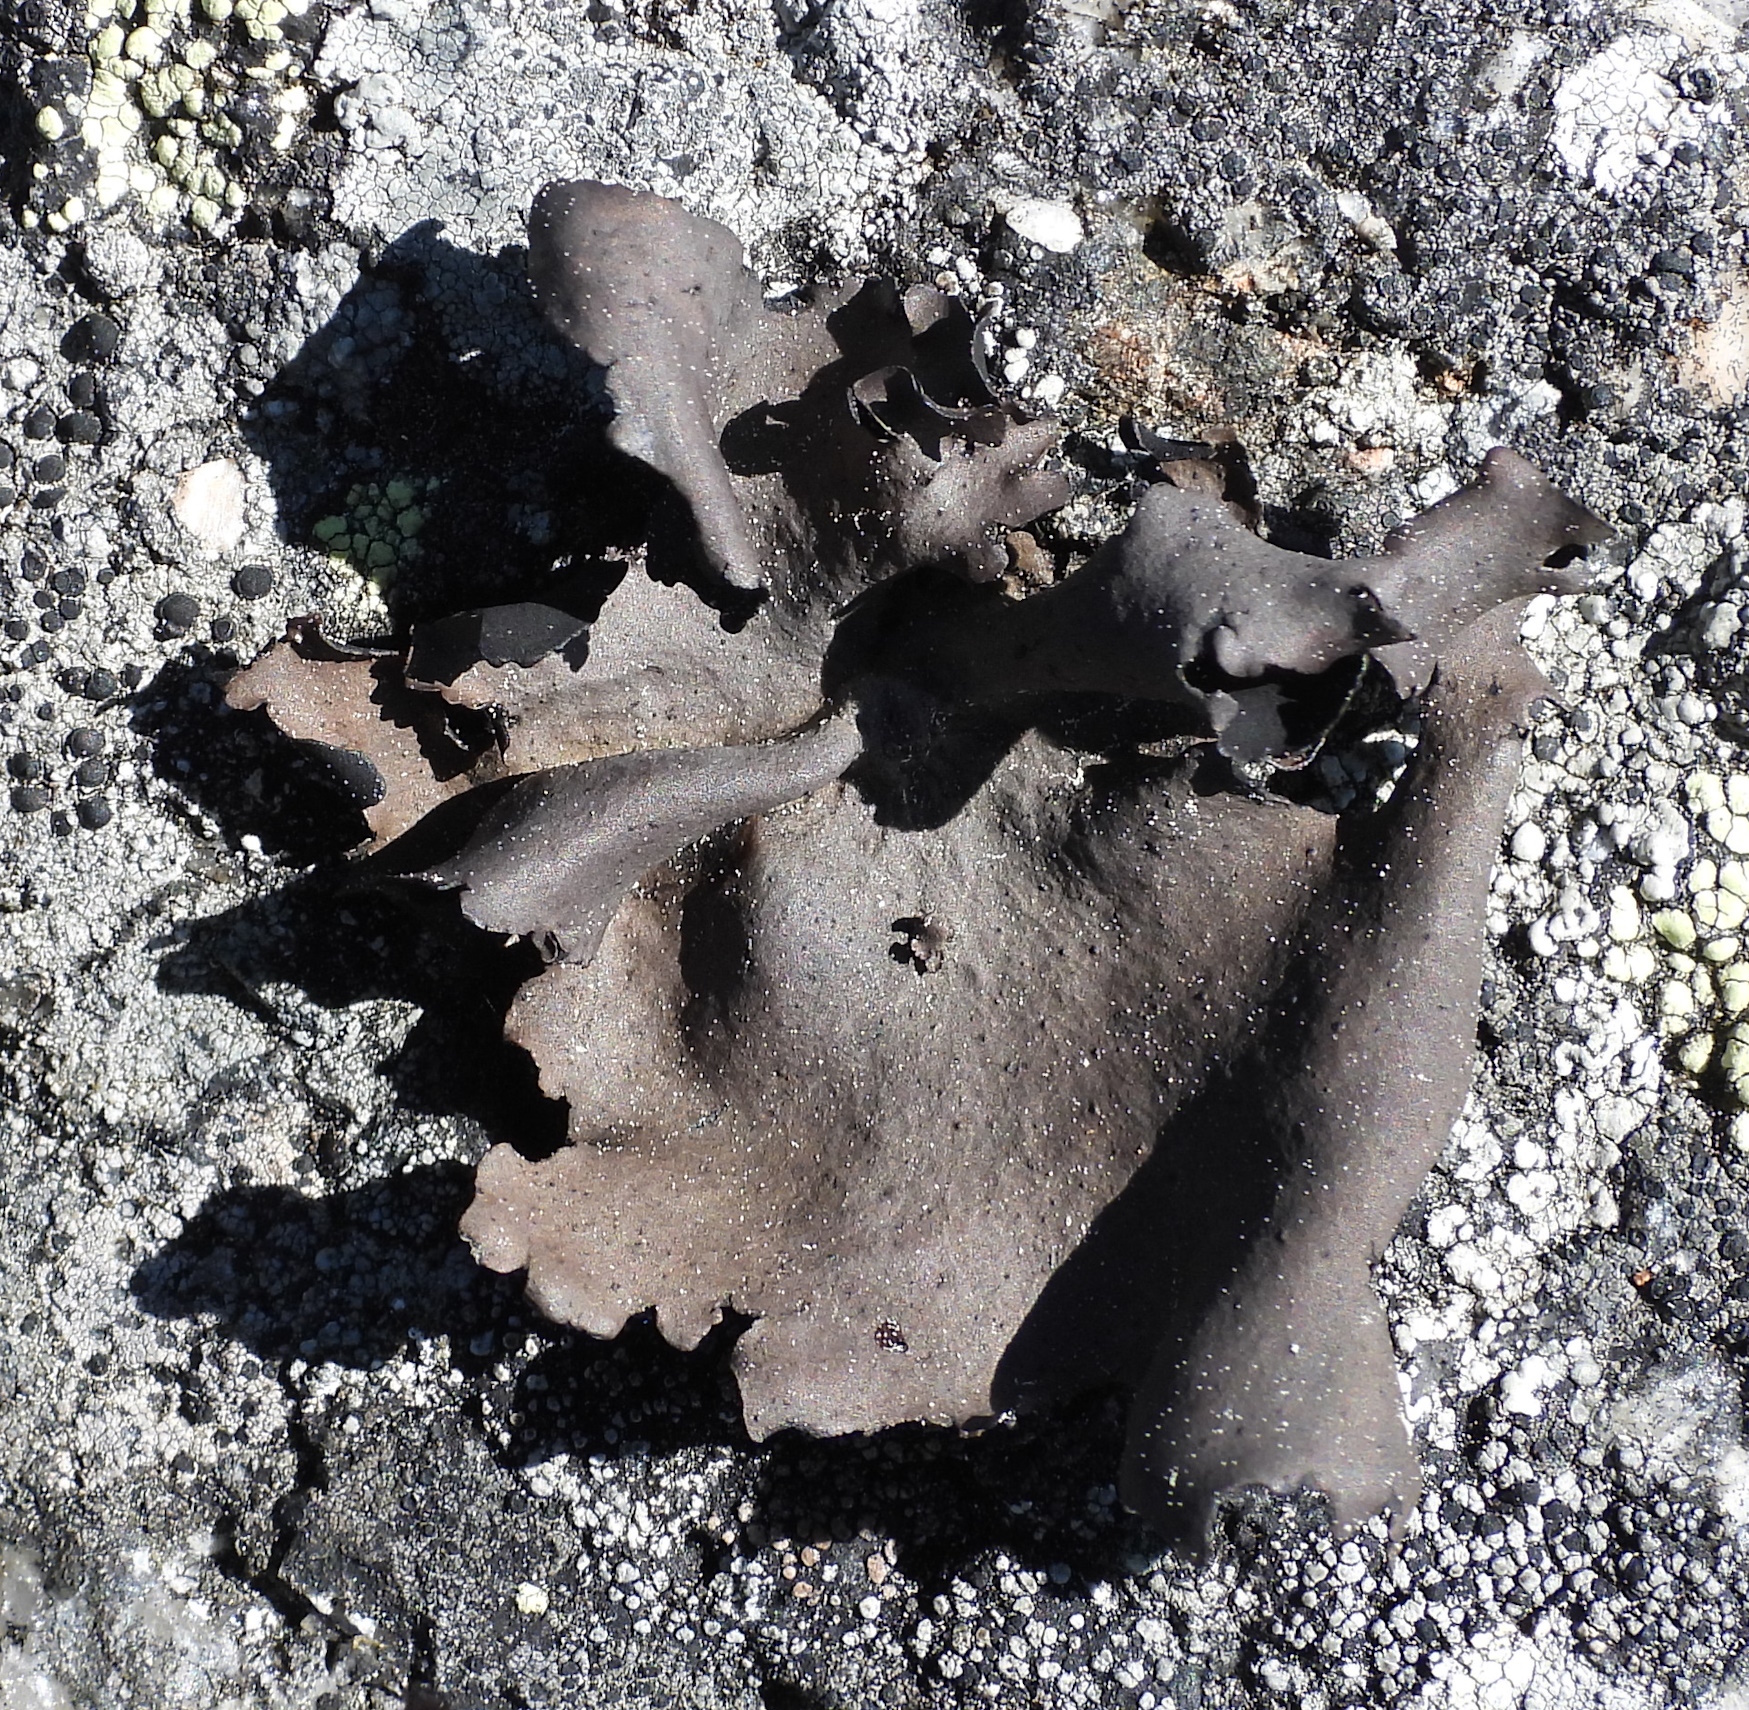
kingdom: Fungi
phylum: Ascomycota
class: Lecanoromycetes
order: Umbilicariales
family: Umbilicariaceae
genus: Umbilicaria
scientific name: Umbilicaria polyphylla
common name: Petalled rocktripe lichen
